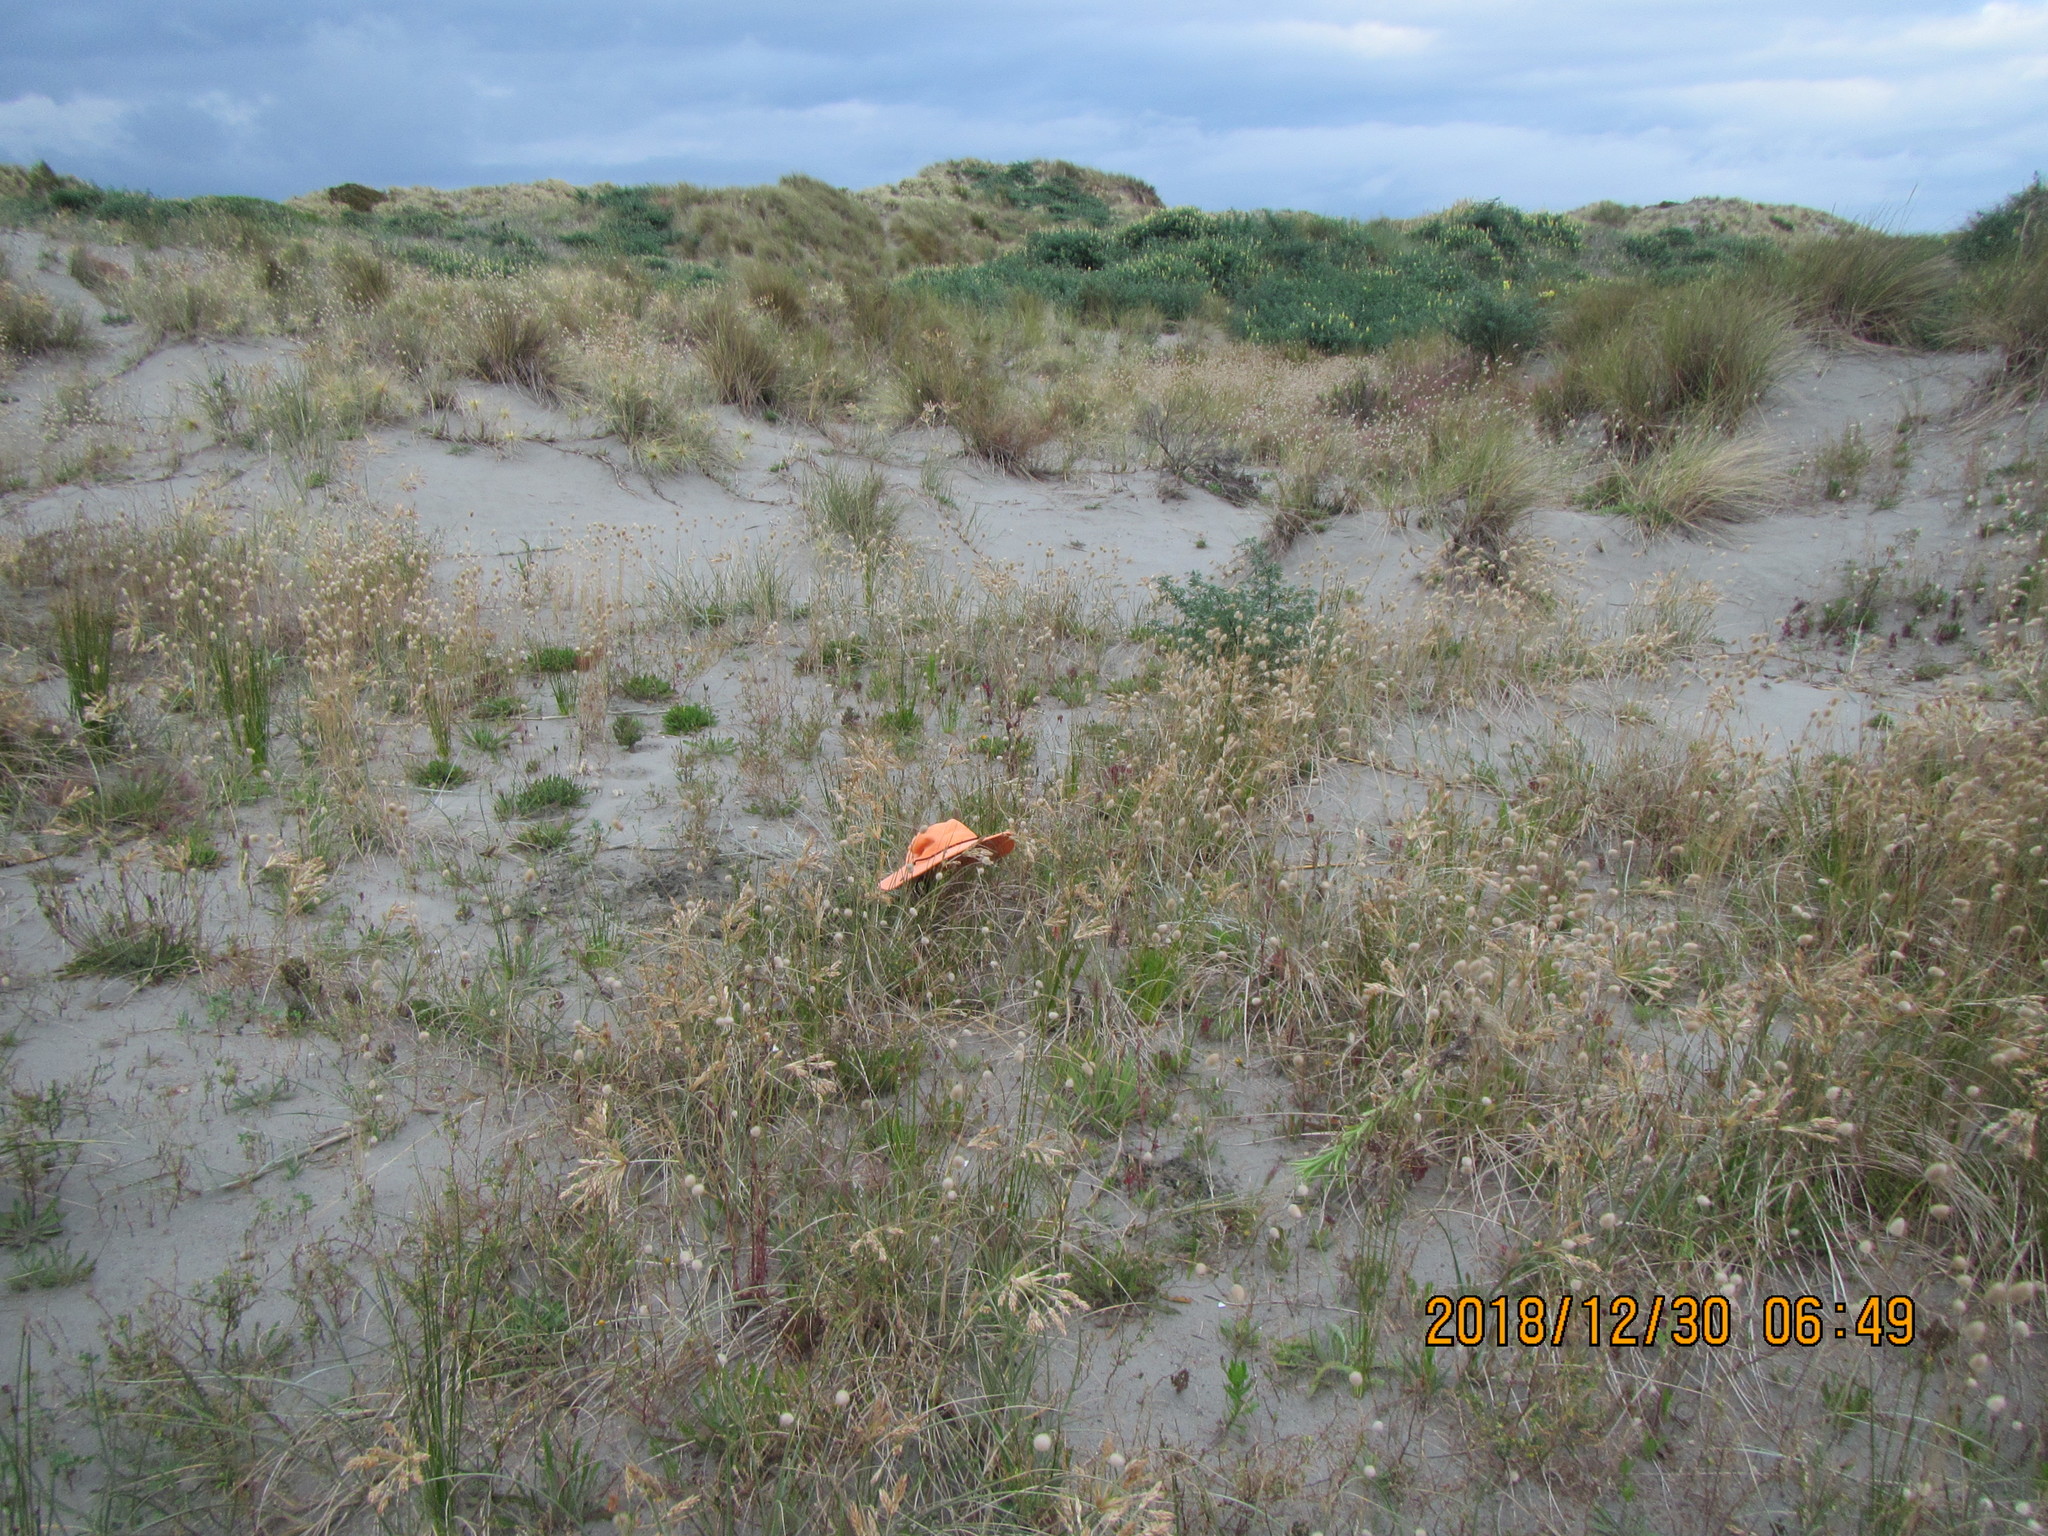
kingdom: Plantae
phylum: Tracheophyta
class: Liliopsida
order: Poales
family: Poaceae
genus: Lachnagrostis
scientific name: Lachnagrostis billardierei
